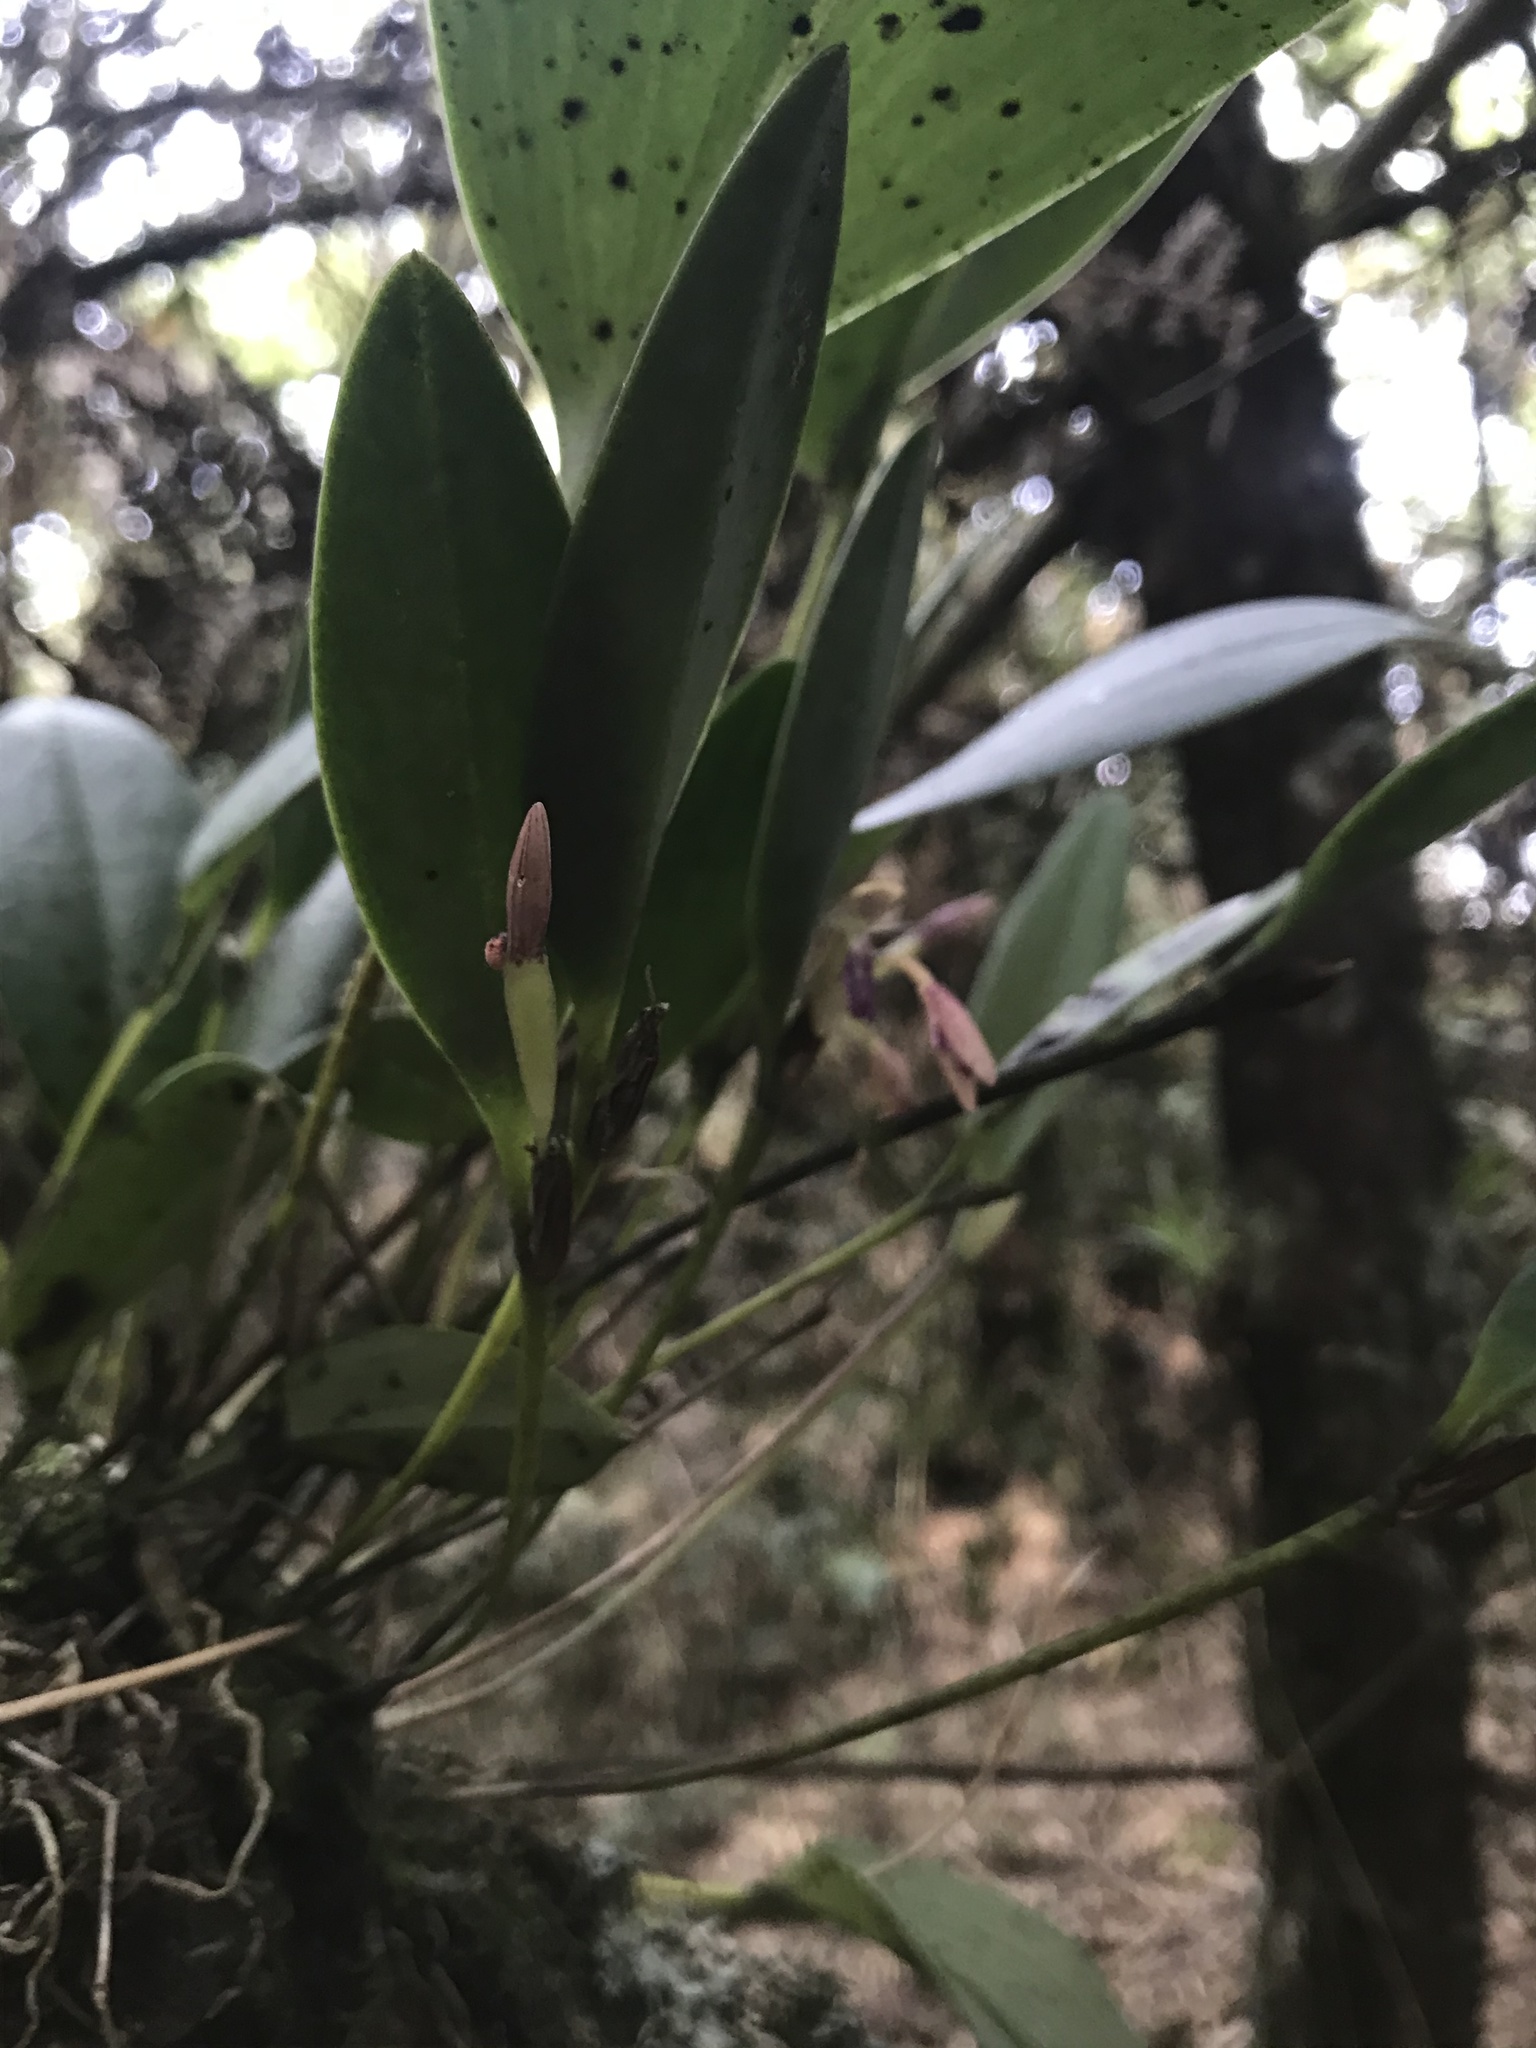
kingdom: Plantae
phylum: Tracheophyta
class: Liliopsida
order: Asparagales
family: Orchidaceae
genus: Pleurothallis
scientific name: Pleurothallis talpinaria
